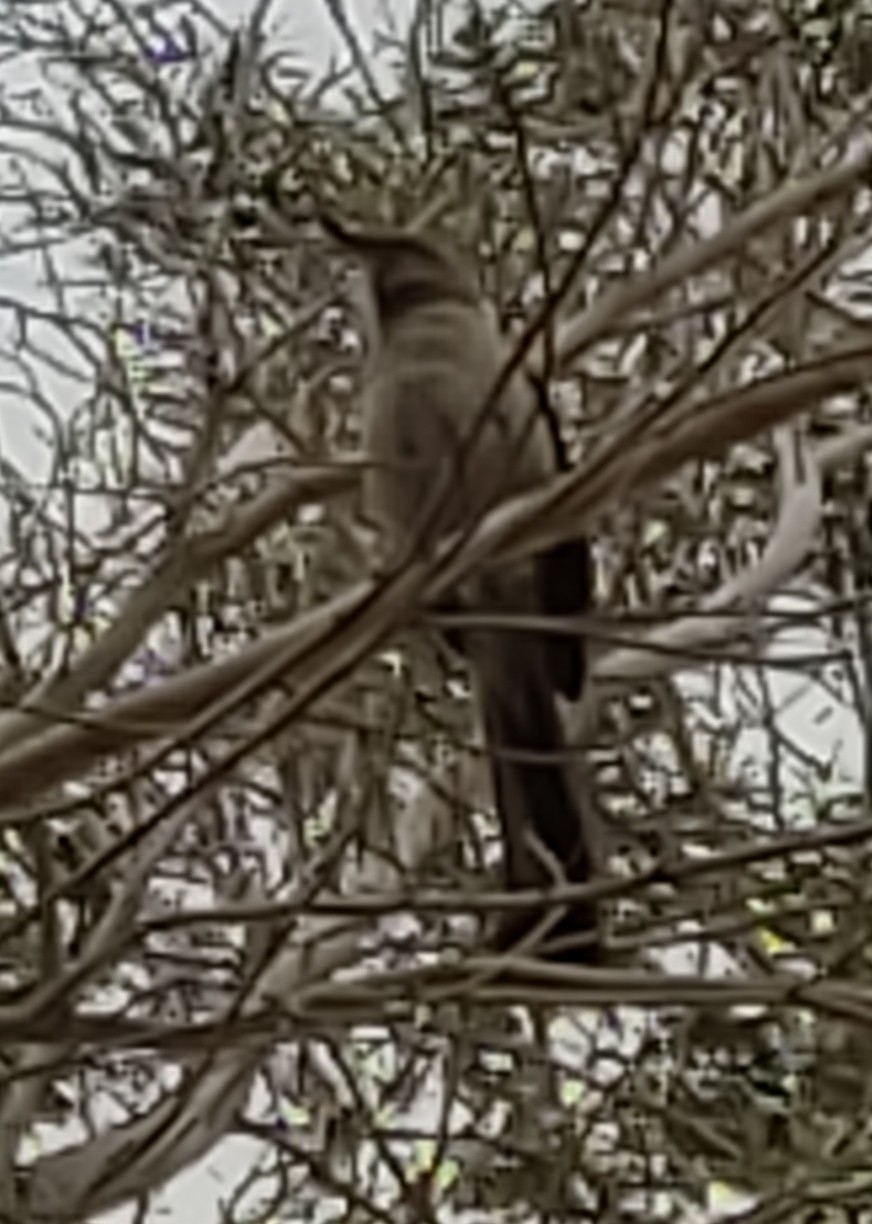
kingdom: Animalia
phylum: Chordata
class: Aves
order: Passeriformes
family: Mimidae
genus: Mimus
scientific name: Mimus polyglottos
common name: Northern mockingbird
